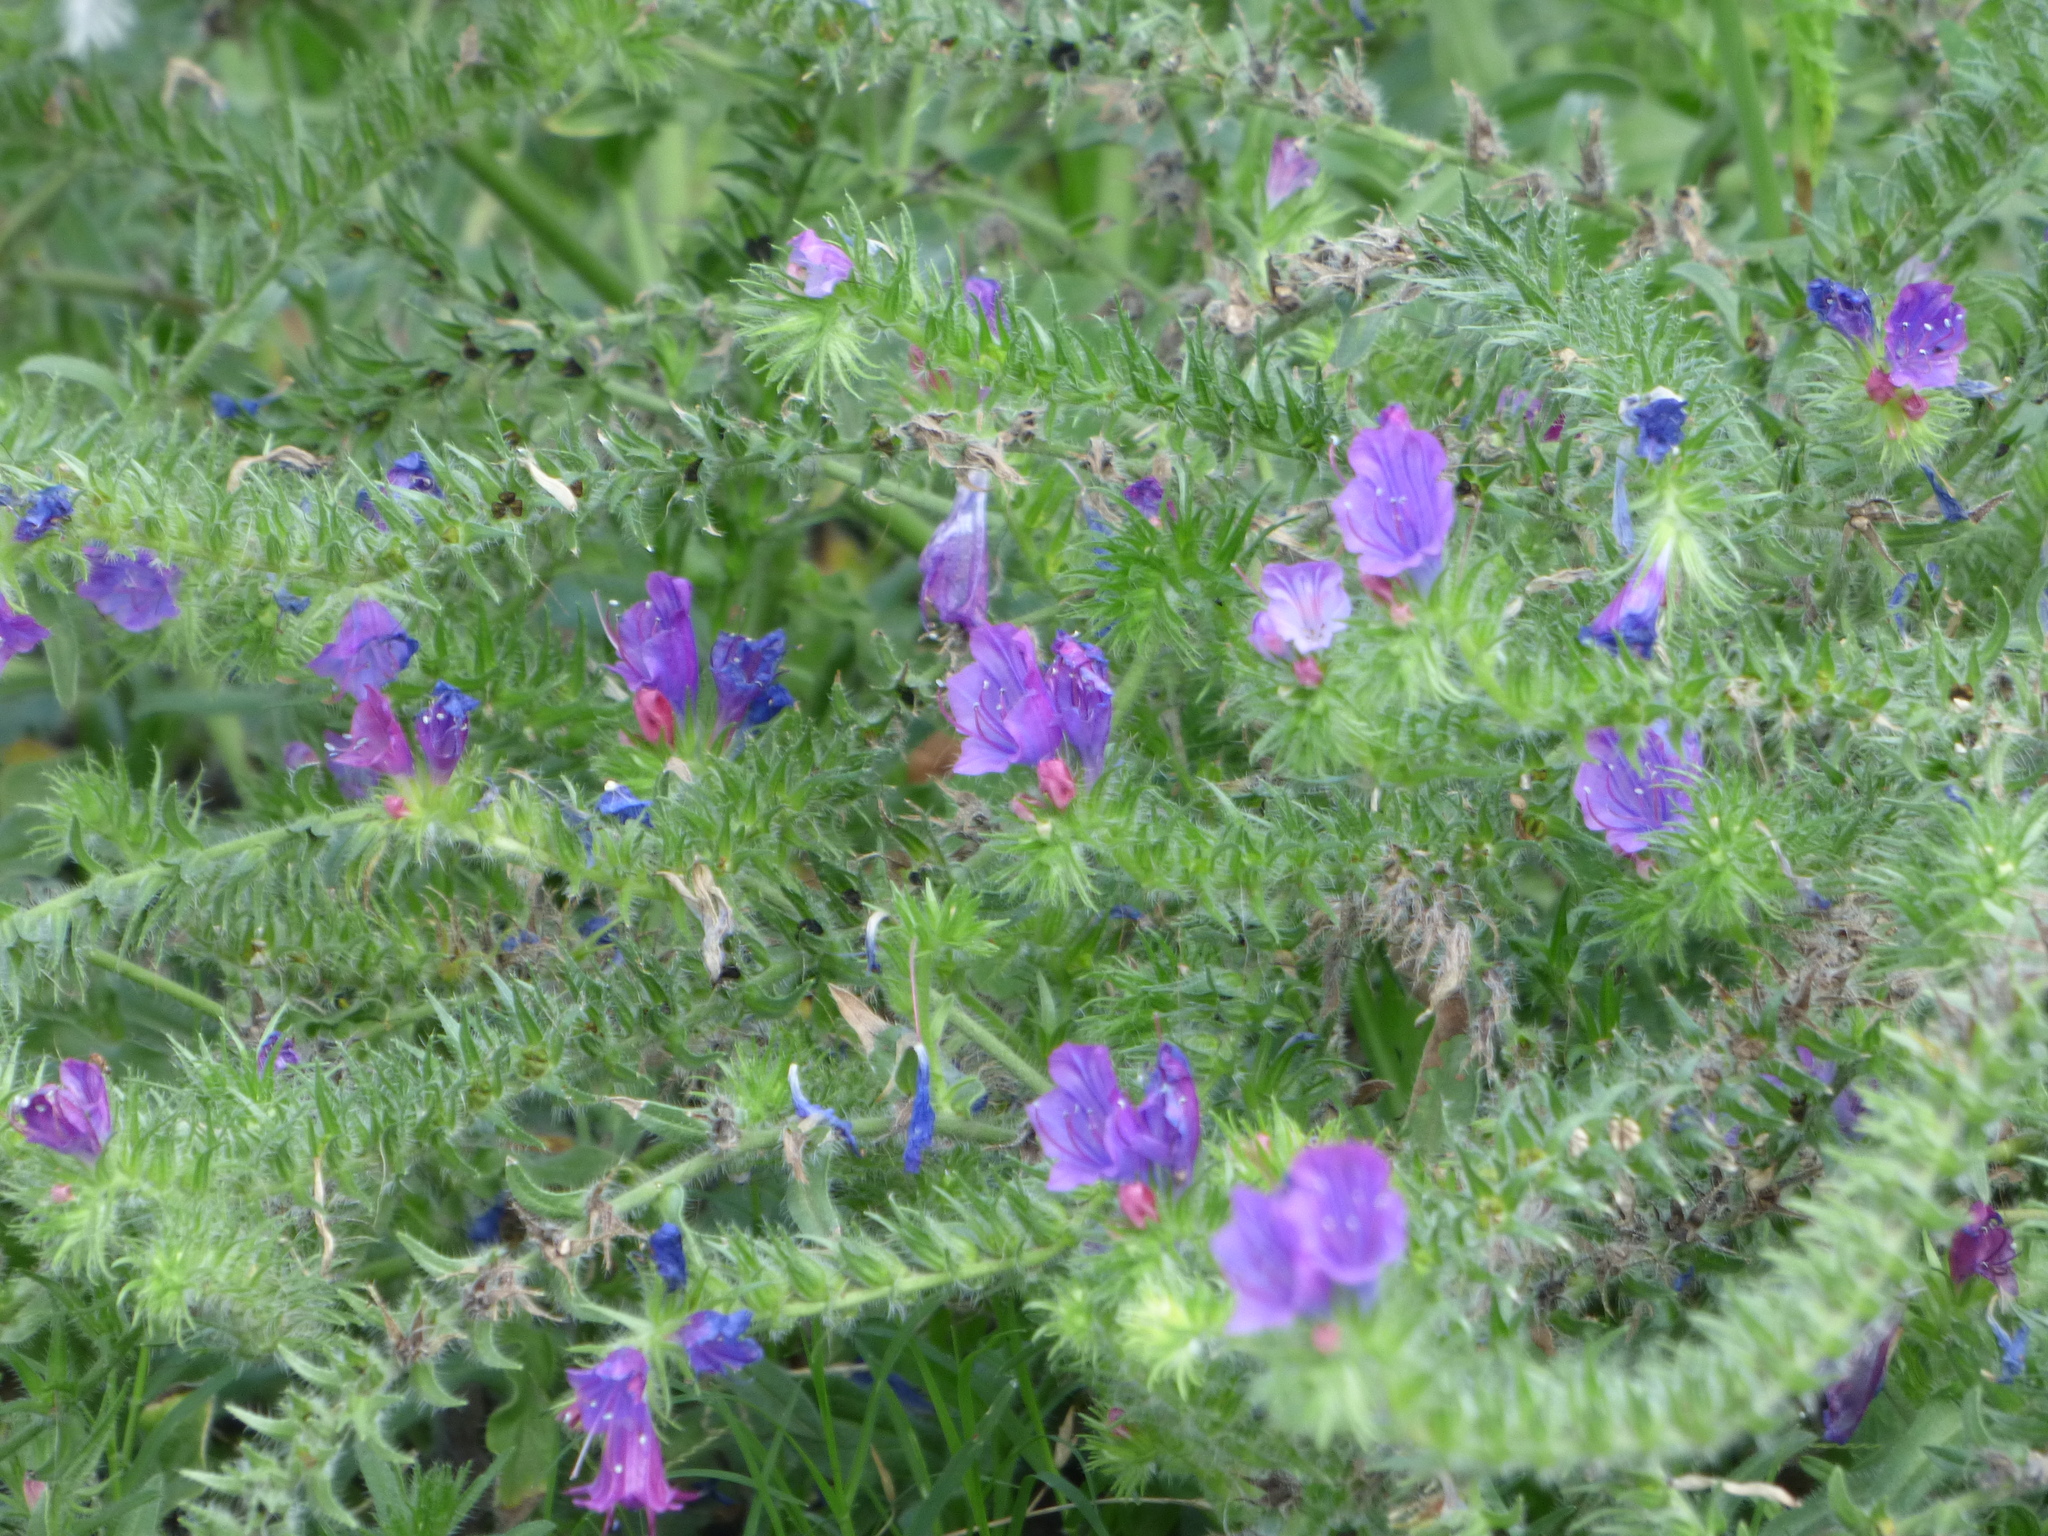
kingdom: Plantae
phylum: Tracheophyta
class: Magnoliopsida
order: Boraginales
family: Boraginaceae
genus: Echium
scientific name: Echium plantagineum
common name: Purple viper's-bugloss
